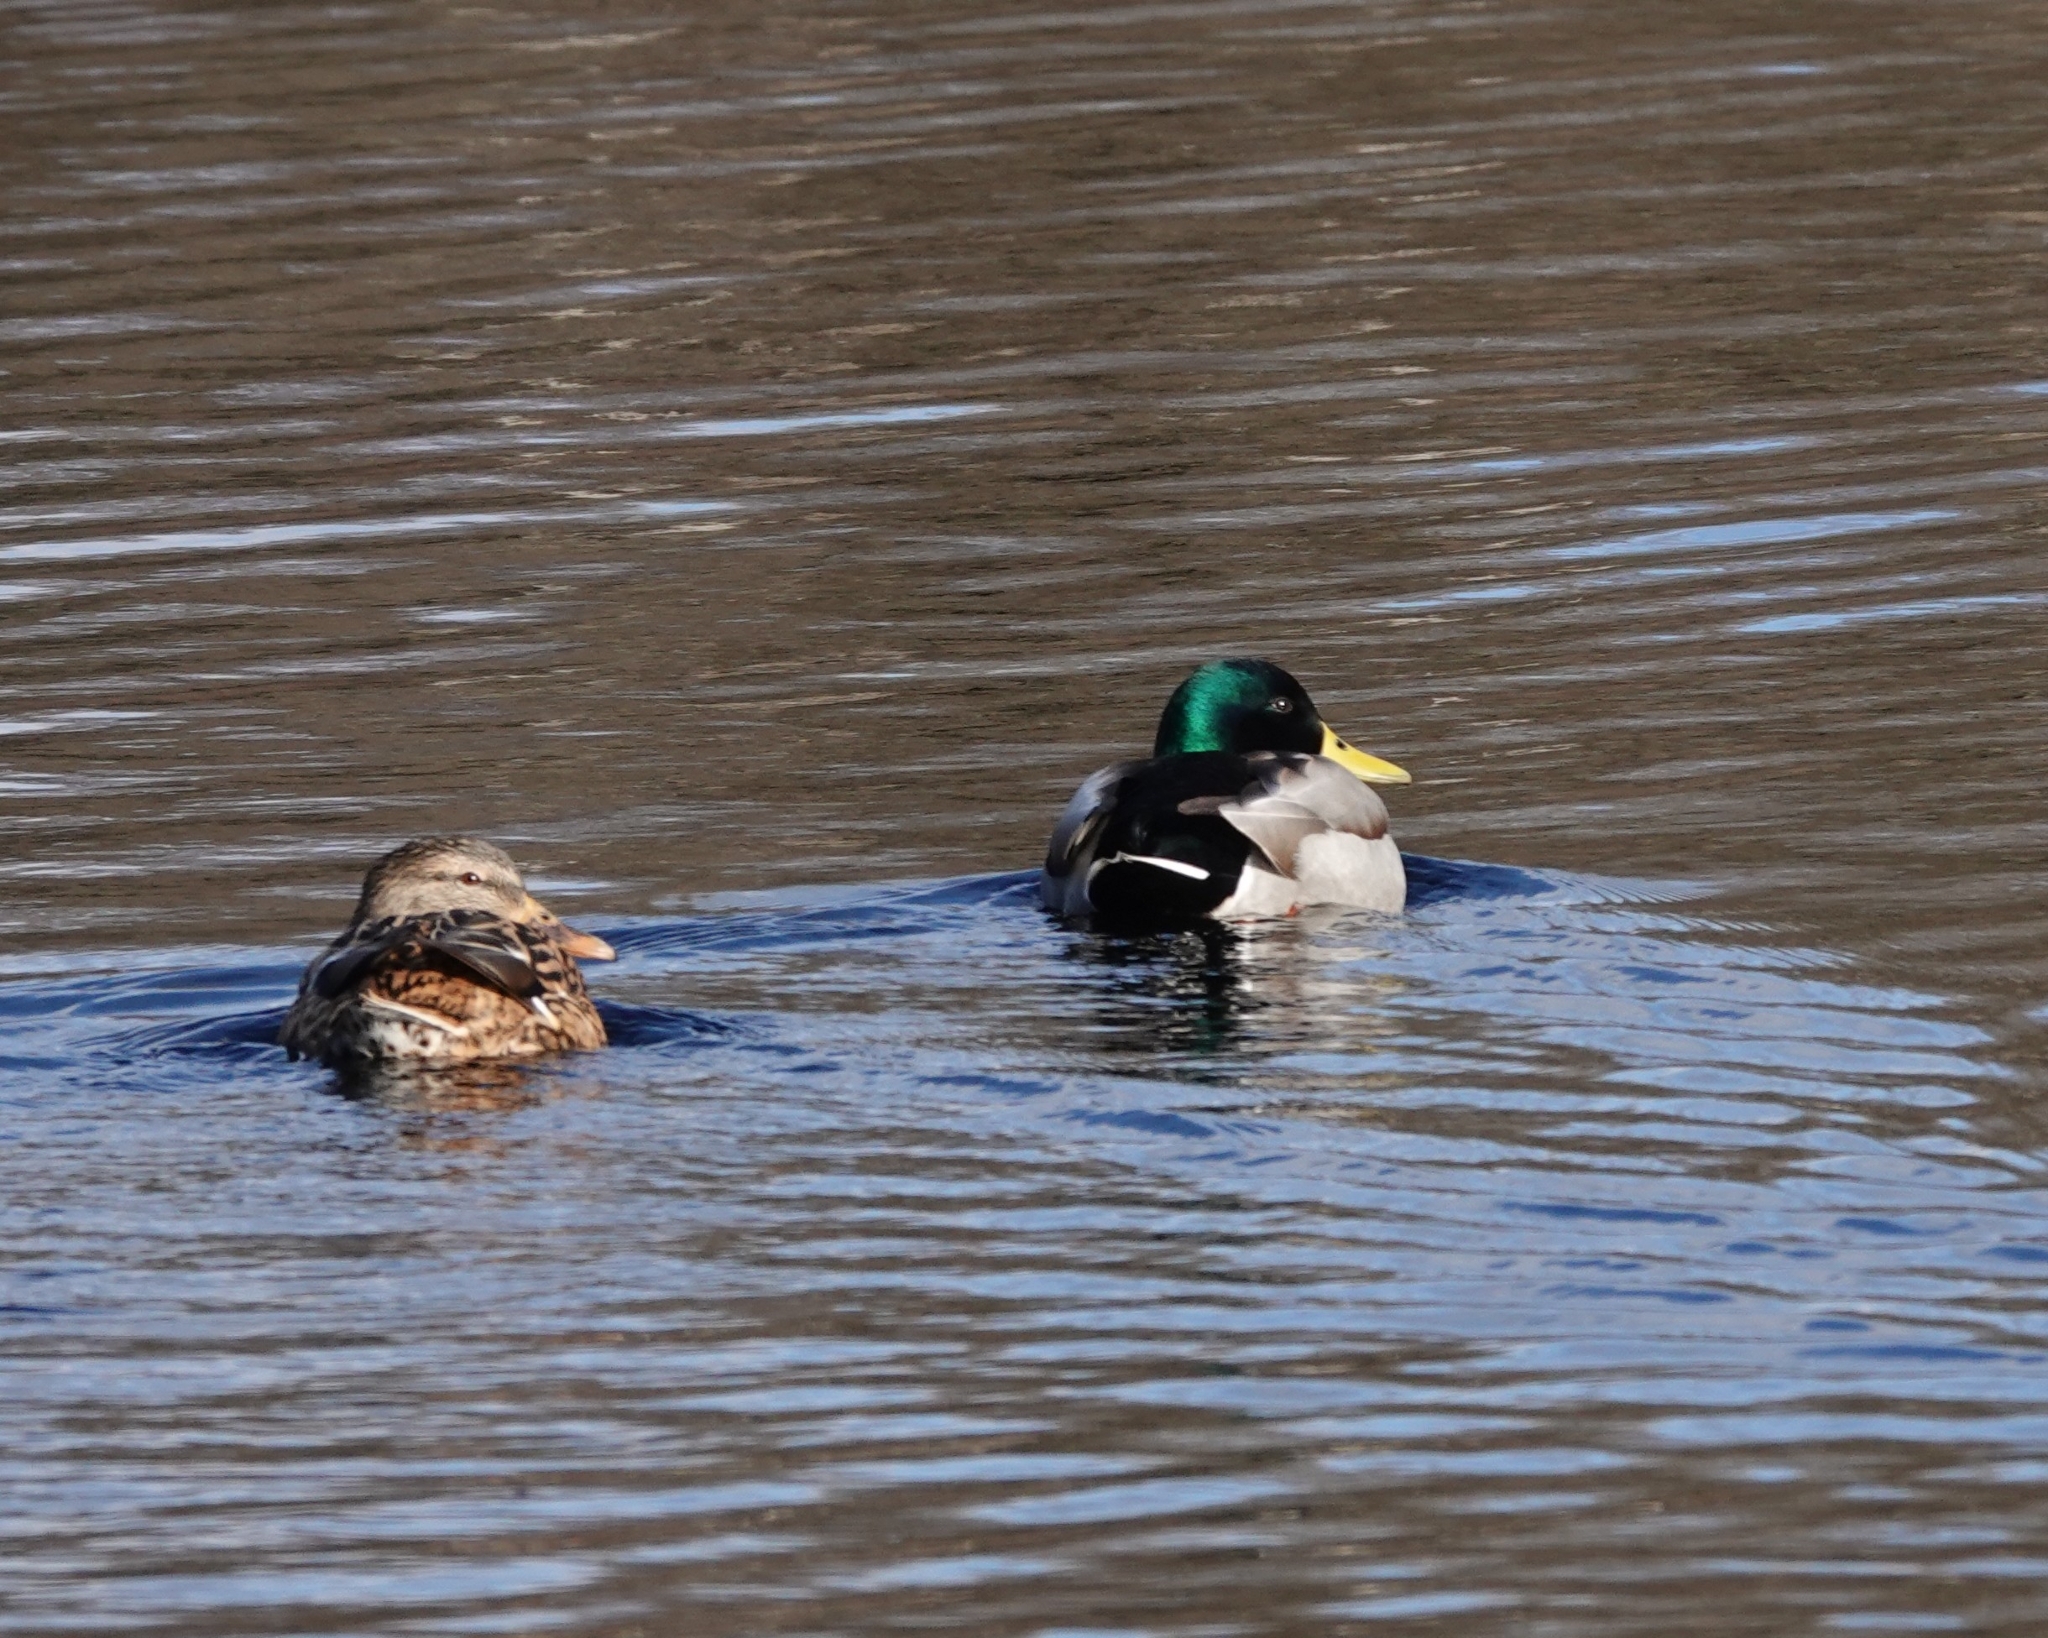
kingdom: Animalia
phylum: Chordata
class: Aves
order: Anseriformes
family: Anatidae
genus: Anas
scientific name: Anas platyrhynchos
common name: Mallard
